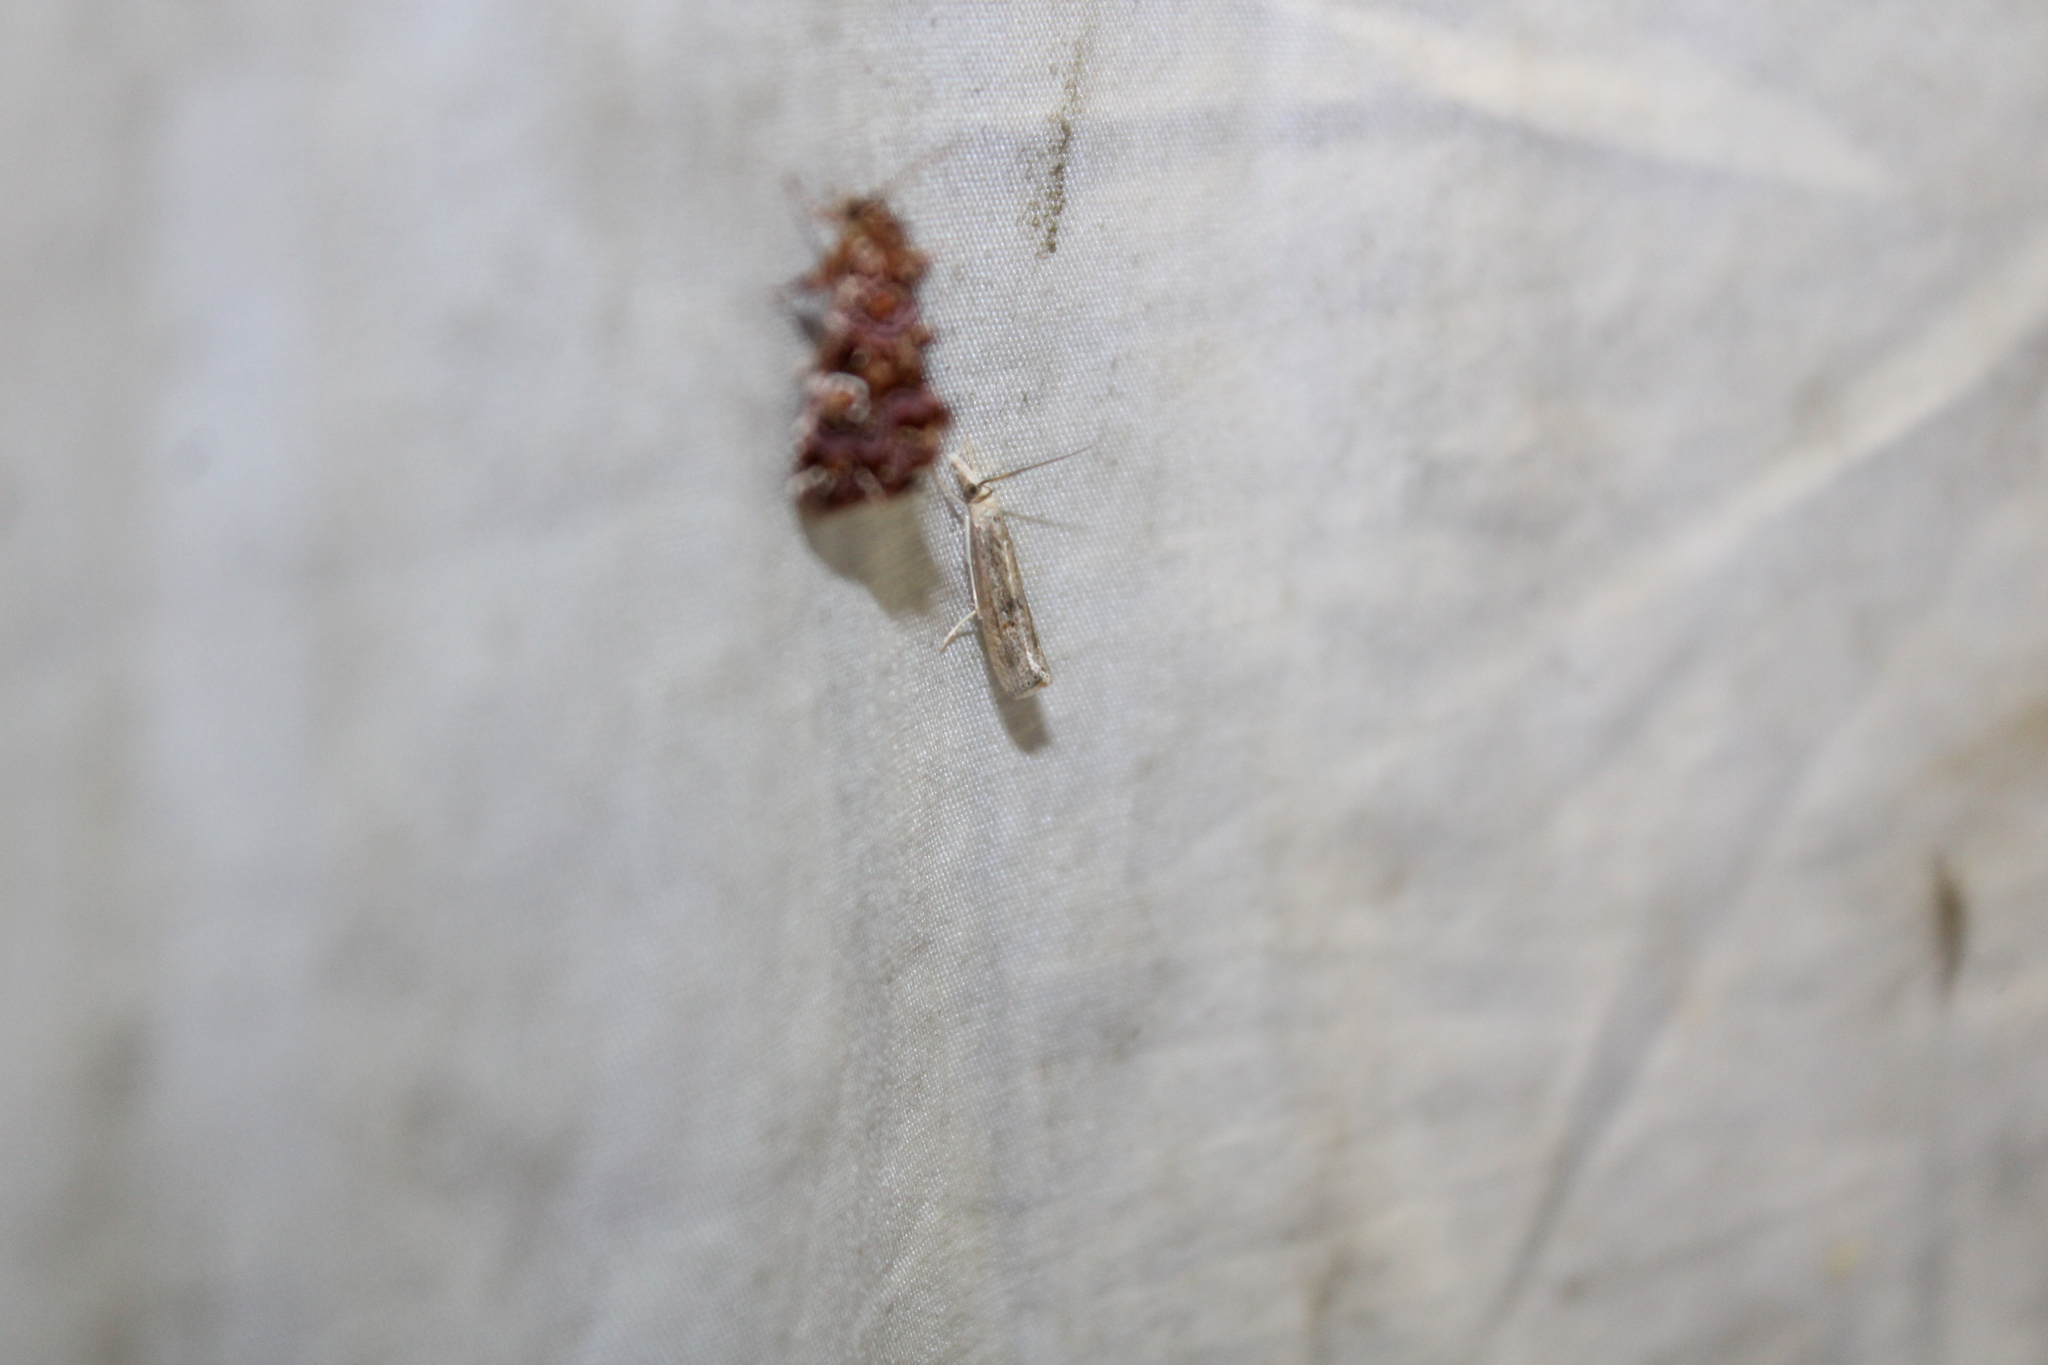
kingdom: Animalia
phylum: Arthropoda
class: Insecta
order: Lepidoptera
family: Noctuidae
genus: Callopistria
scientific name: Callopistria mollissima
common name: Pink-shaded fern moth
